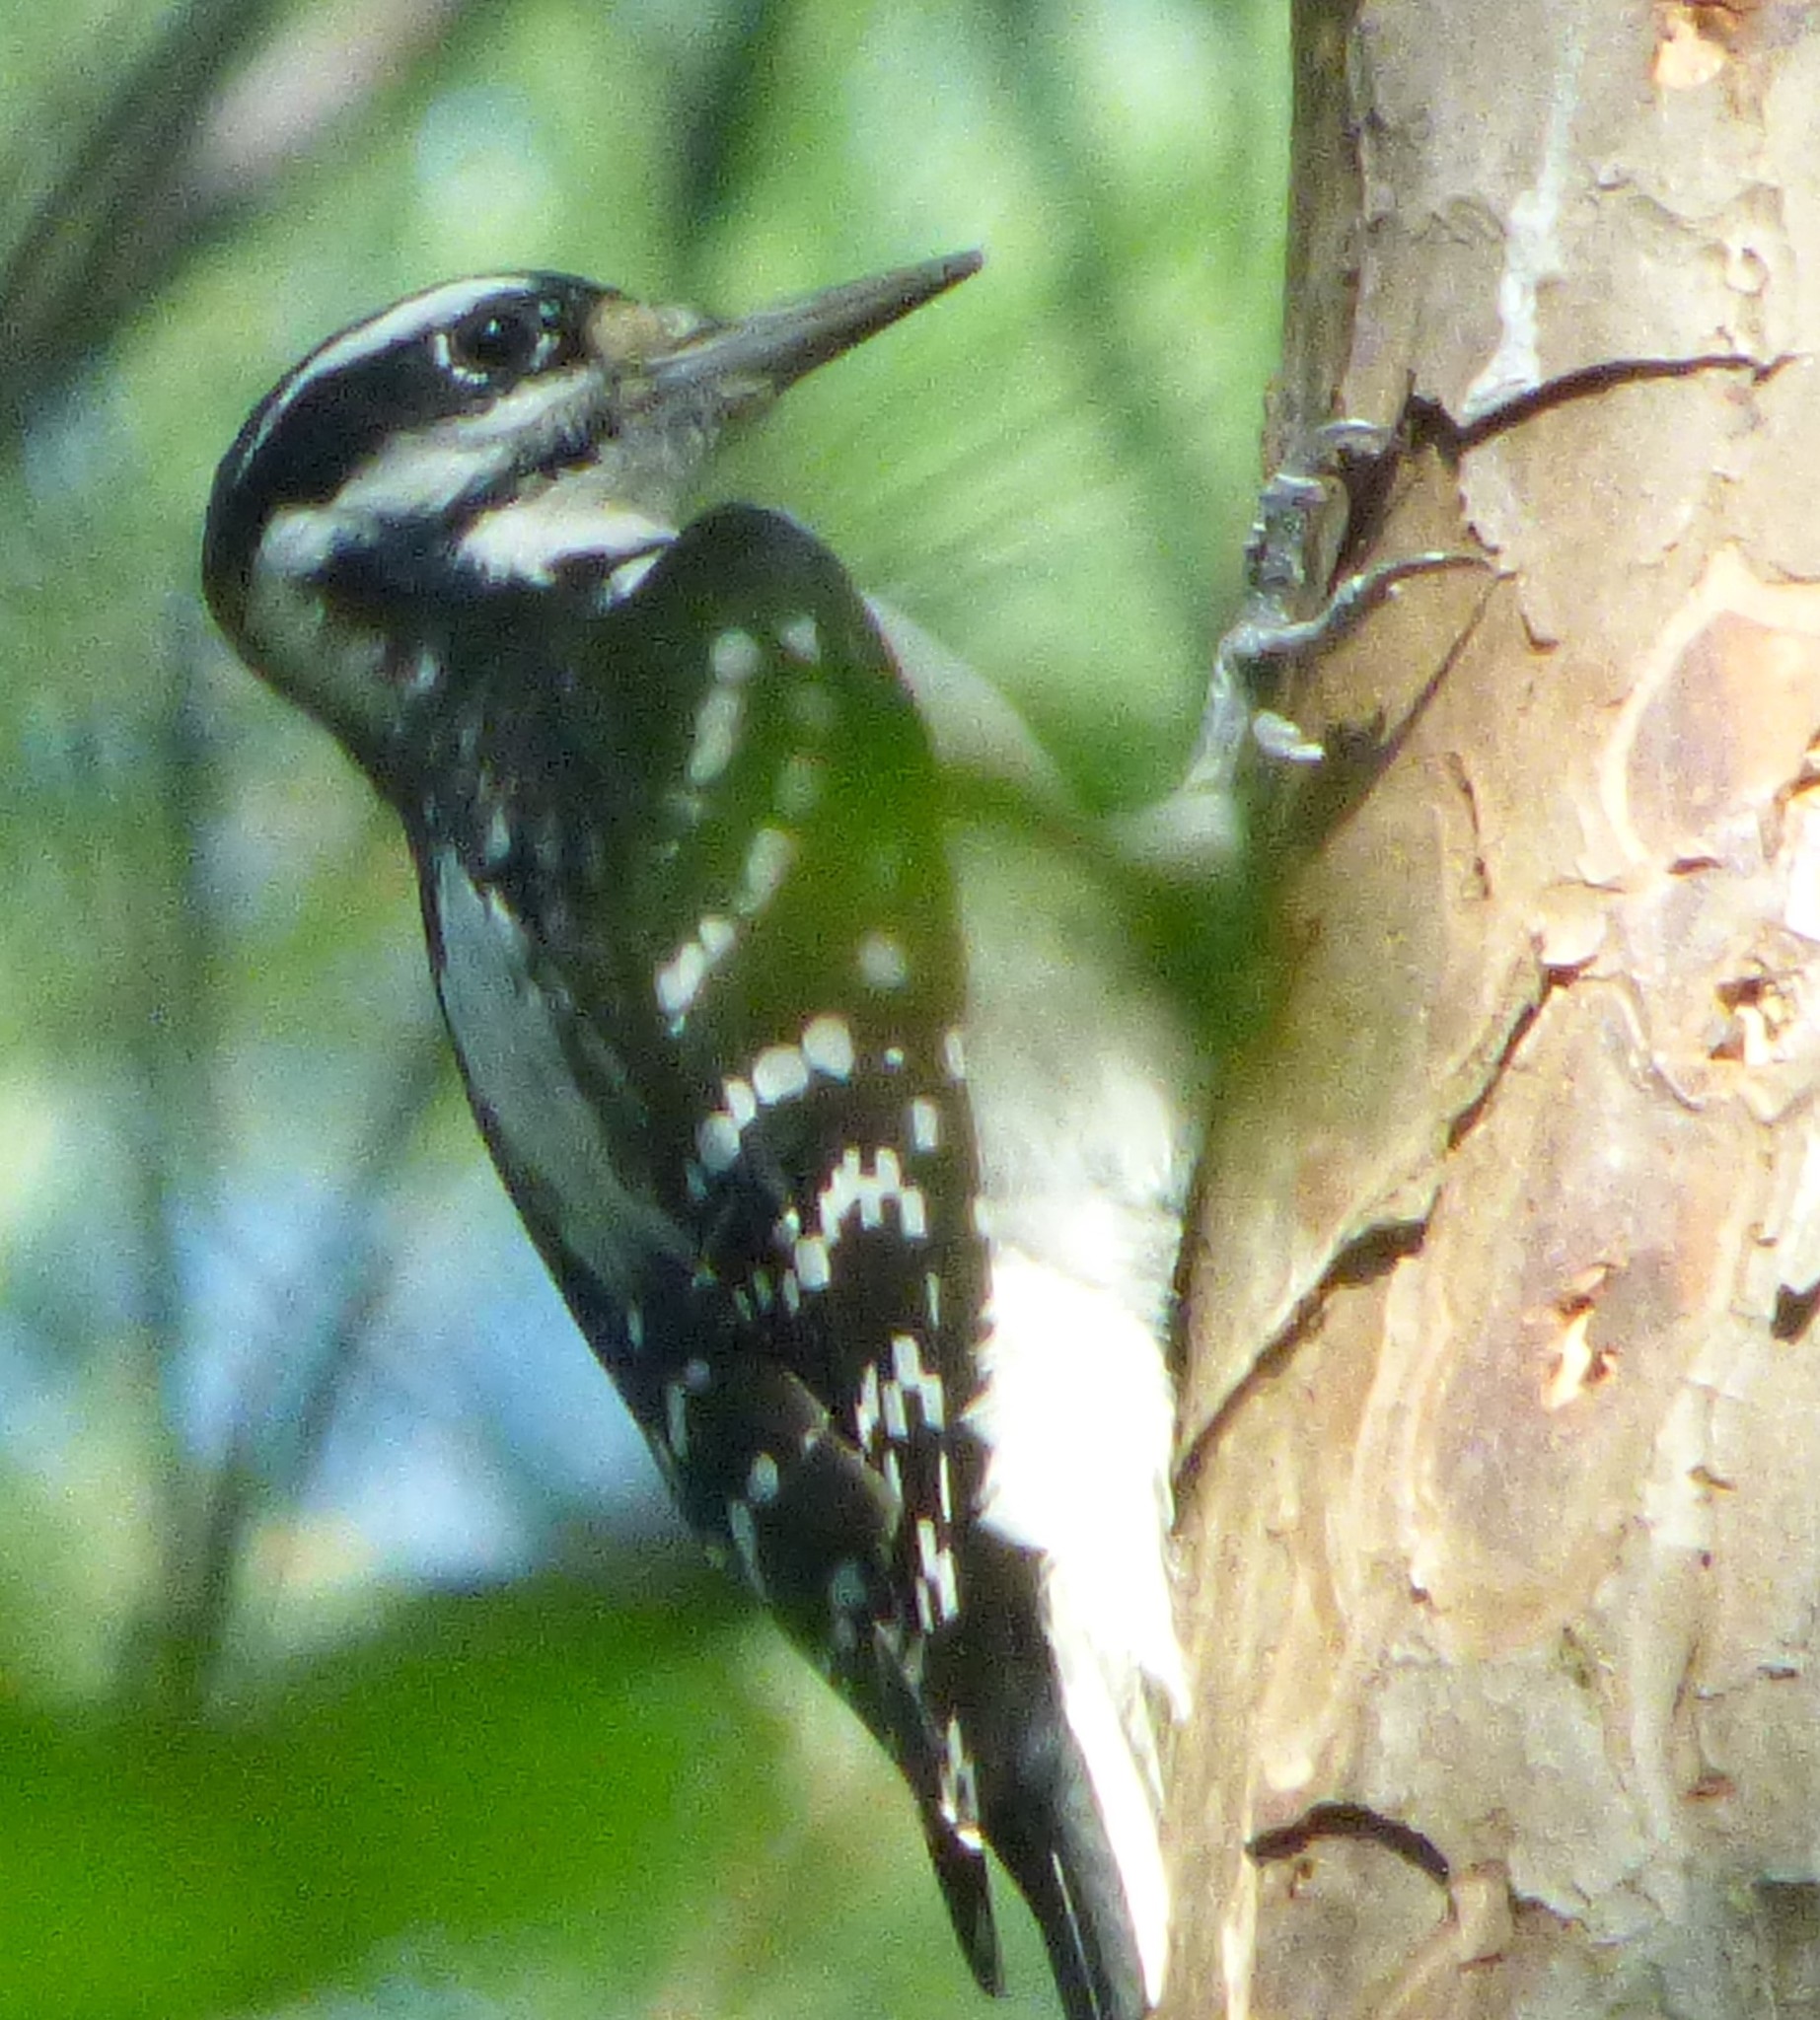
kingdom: Animalia
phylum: Chordata
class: Aves
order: Piciformes
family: Picidae
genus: Leuconotopicus
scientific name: Leuconotopicus villosus
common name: Hairy woodpecker
